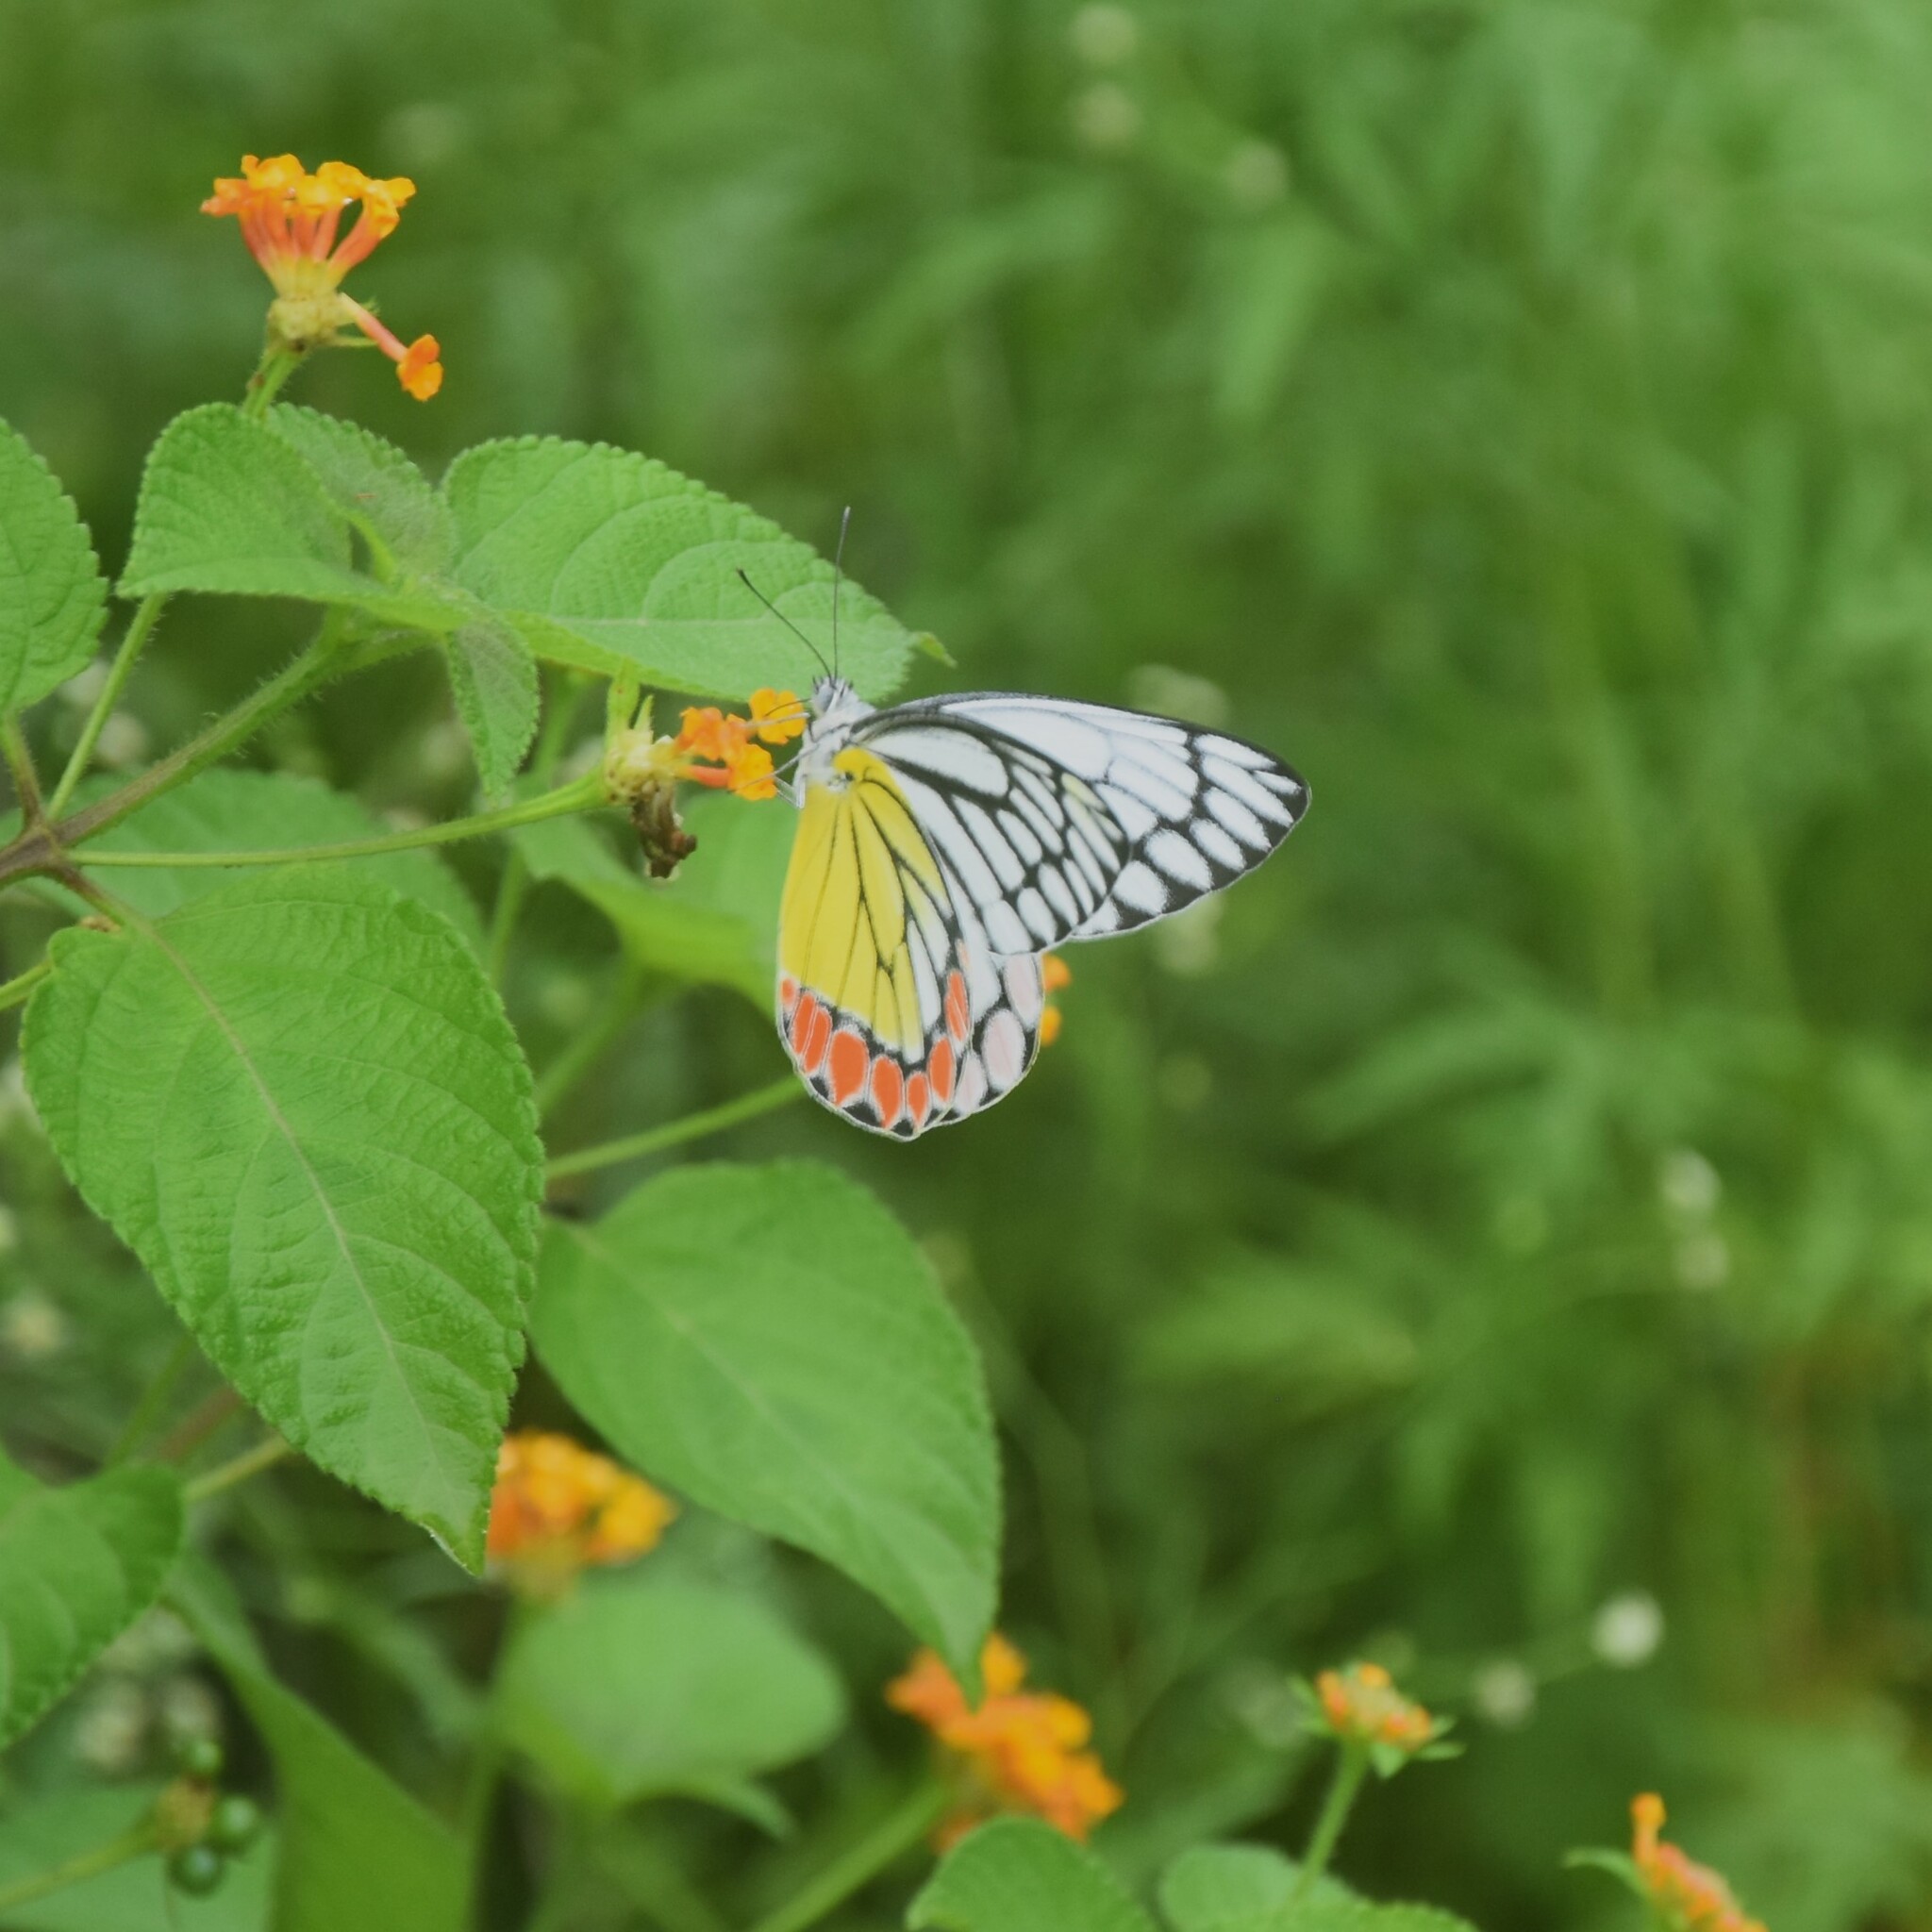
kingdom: Animalia
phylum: Arthropoda
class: Insecta
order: Lepidoptera
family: Pieridae
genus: Delias
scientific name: Delias eucharis
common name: Common jezebel
